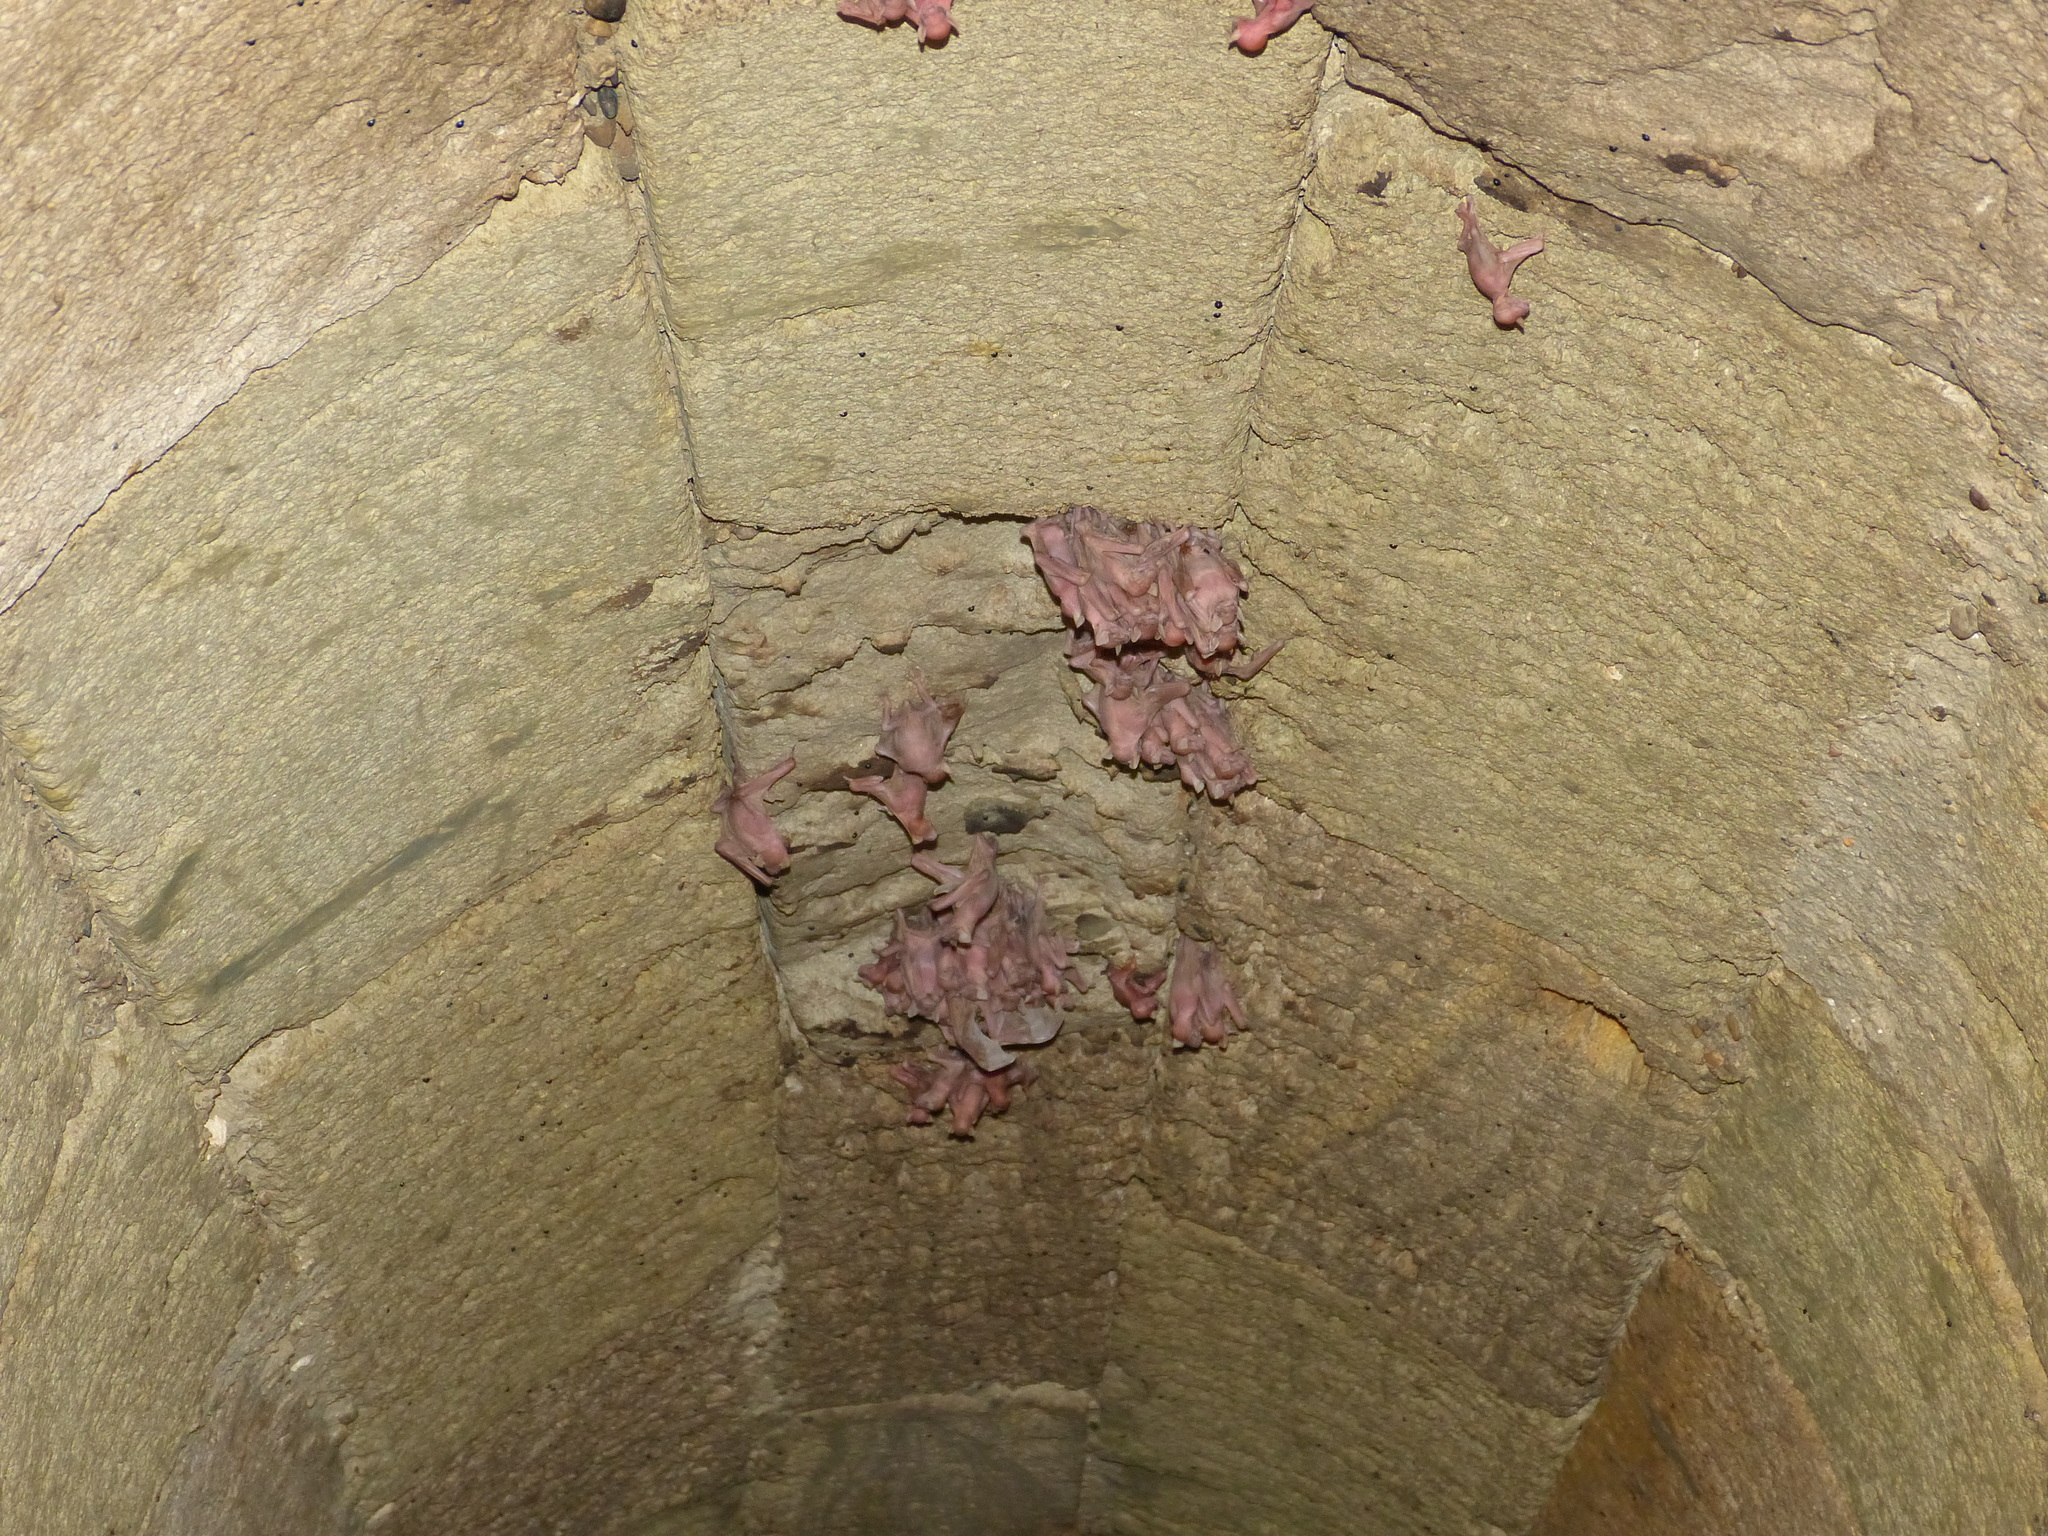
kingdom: Animalia
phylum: Chordata
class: Mammalia
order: Chiroptera
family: Miniopteridae
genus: Miniopterus
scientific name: Miniopterus schreibersii
